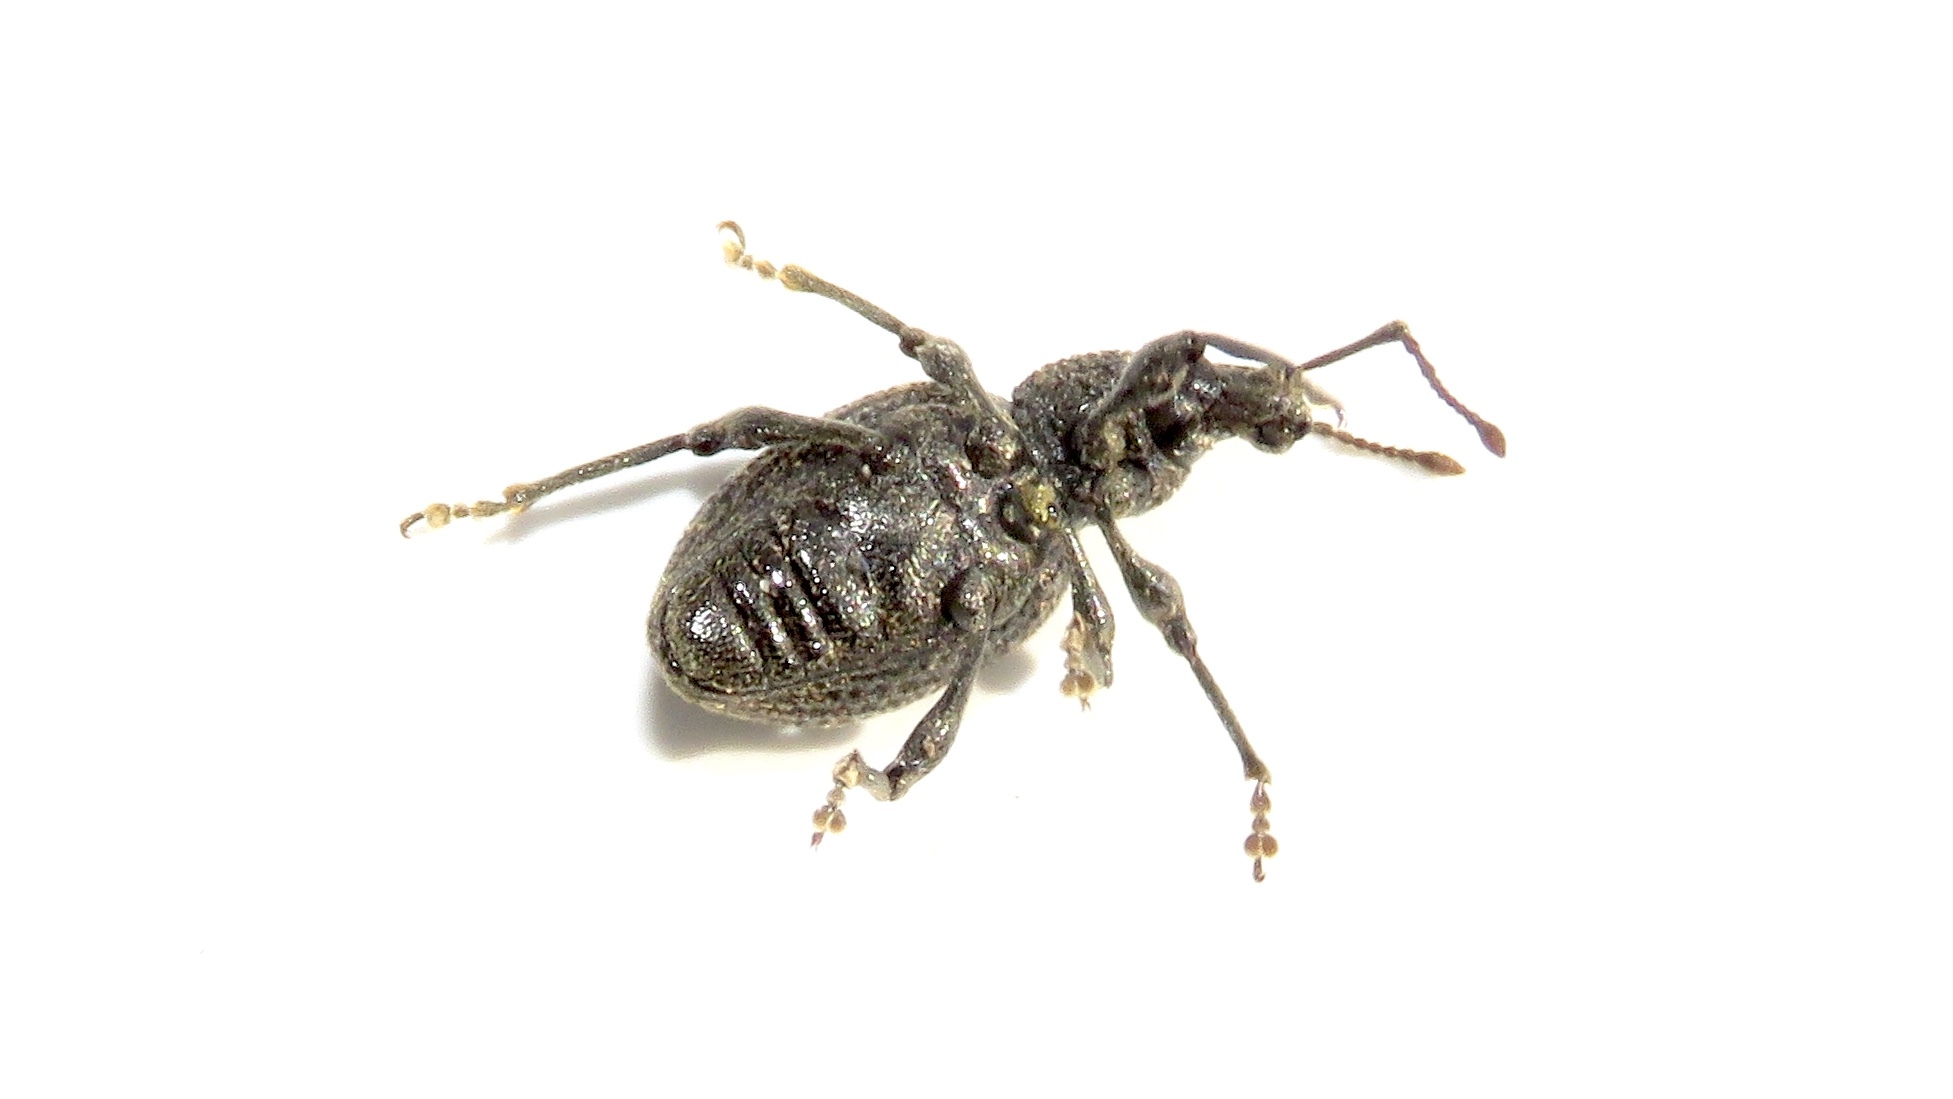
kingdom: Animalia
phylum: Arthropoda
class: Insecta
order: Coleoptera
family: Curculionidae
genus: Otiorhynchus
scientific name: Otiorhynchus sulcatus
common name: Black vine weevil
